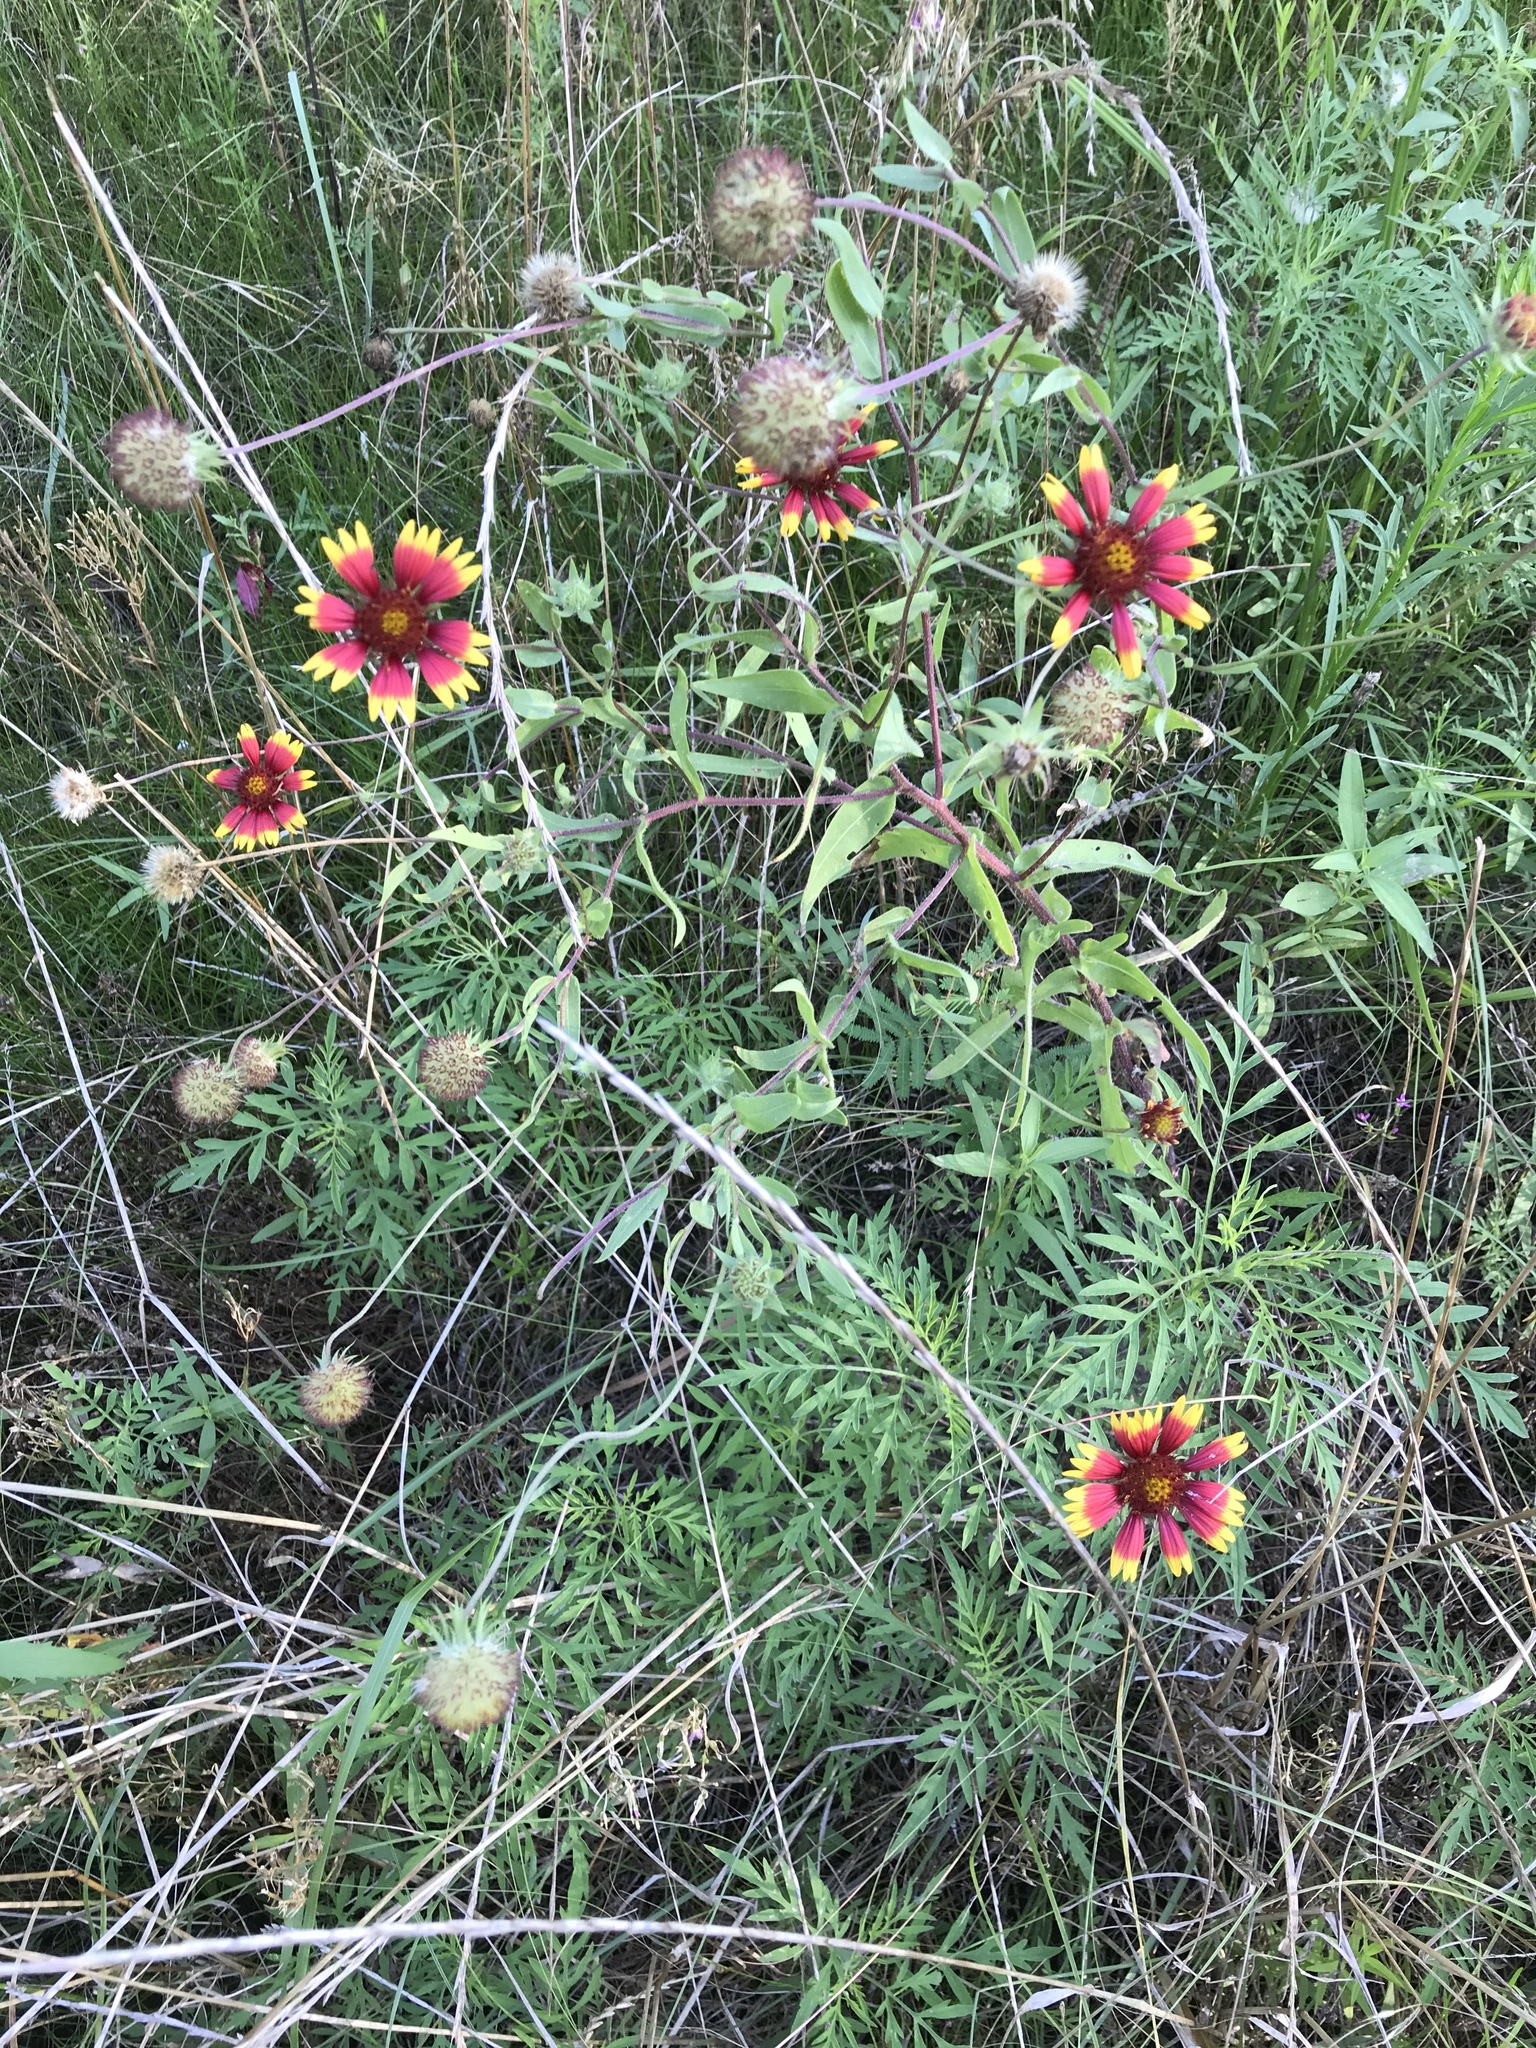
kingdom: Plantae
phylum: Tracheophyta
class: Magnoliopsida
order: Asterales
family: Asteraceae
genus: Gaillardia
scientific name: Gaillardia pulchella
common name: Firewheel
